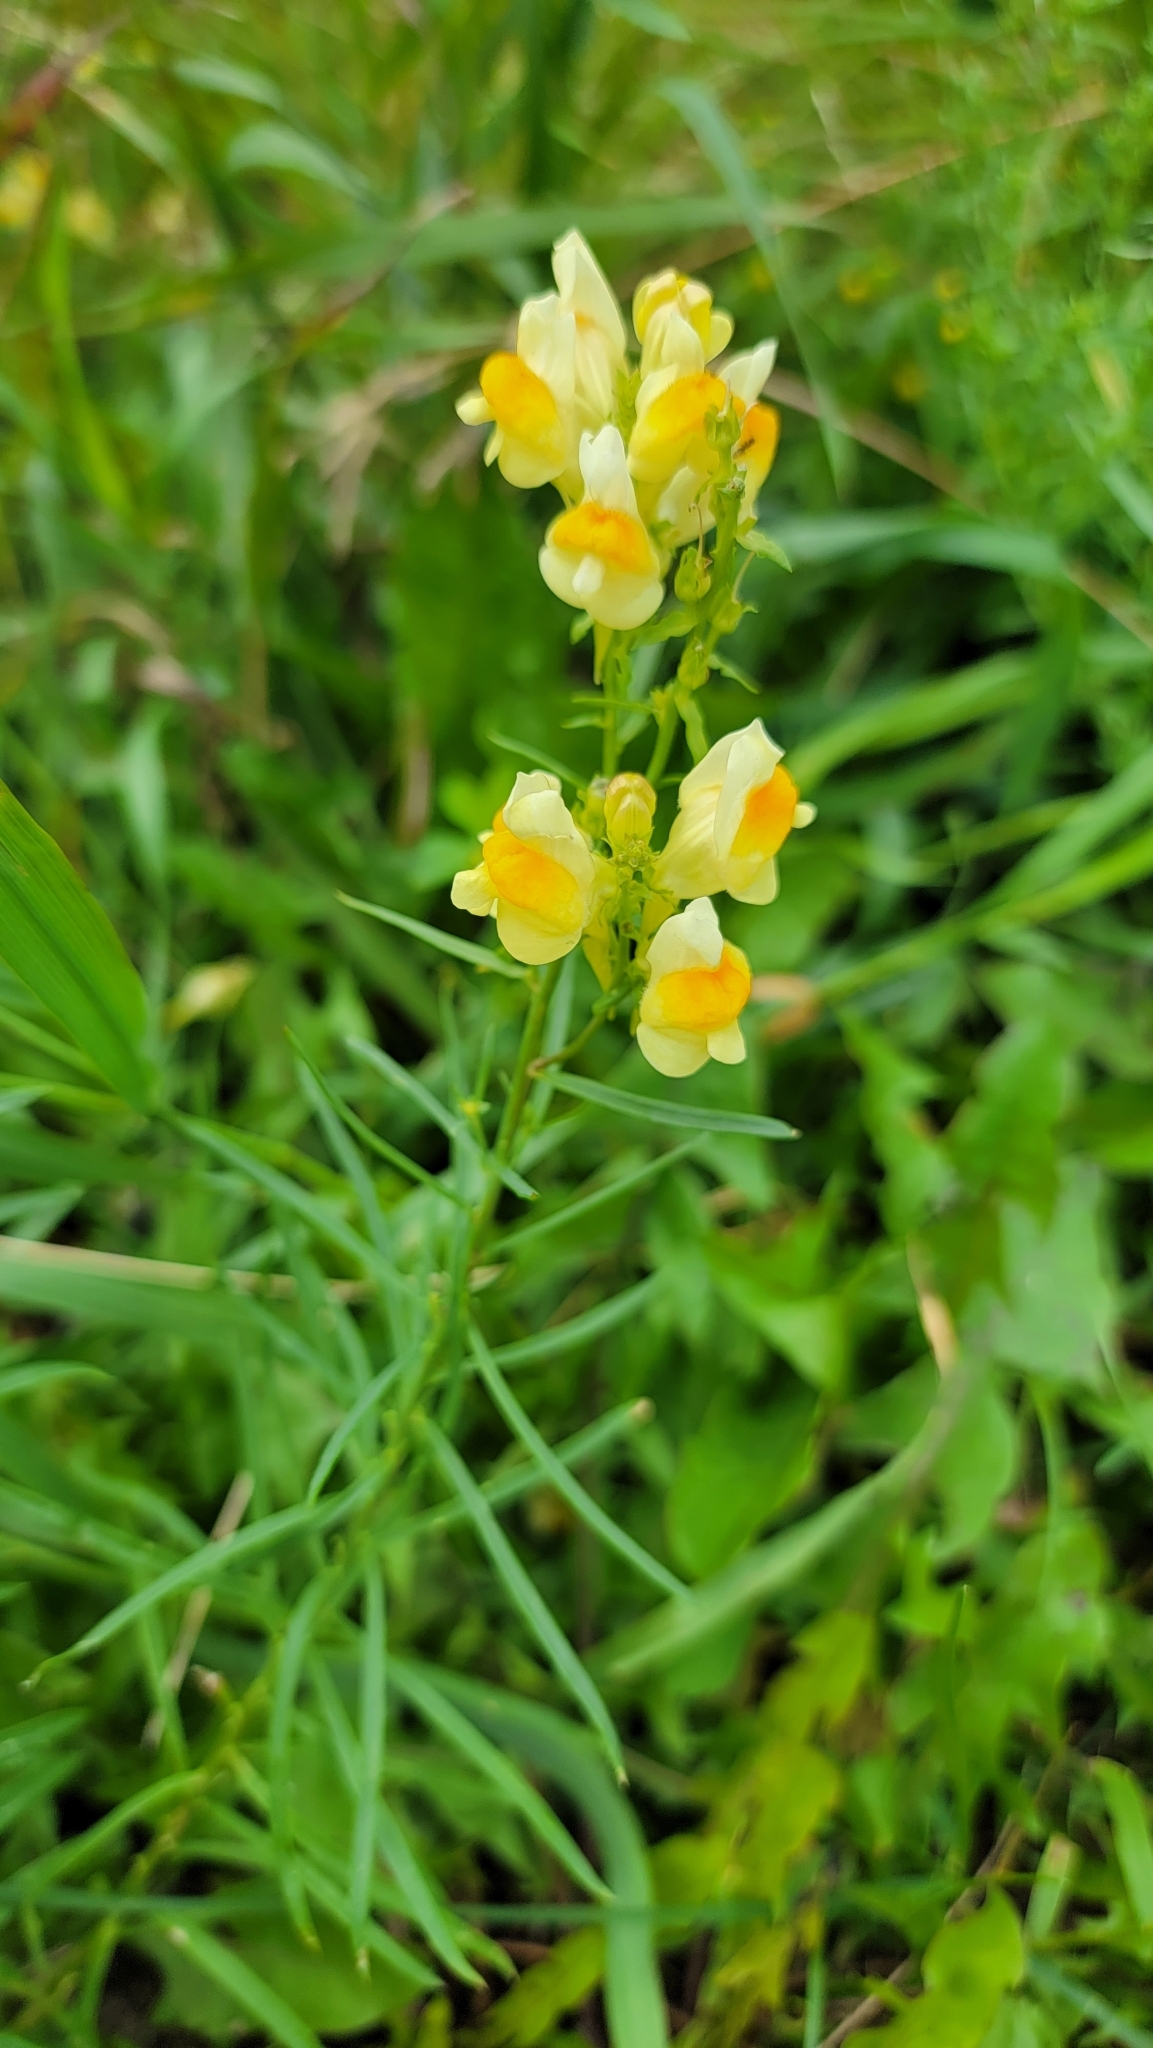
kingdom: Plantae
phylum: Tracheophyta
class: Magnoliopsida
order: Lamiales
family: Plantaginaceae
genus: Linaria
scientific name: Linaria vulgaris
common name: Butter and eggs
